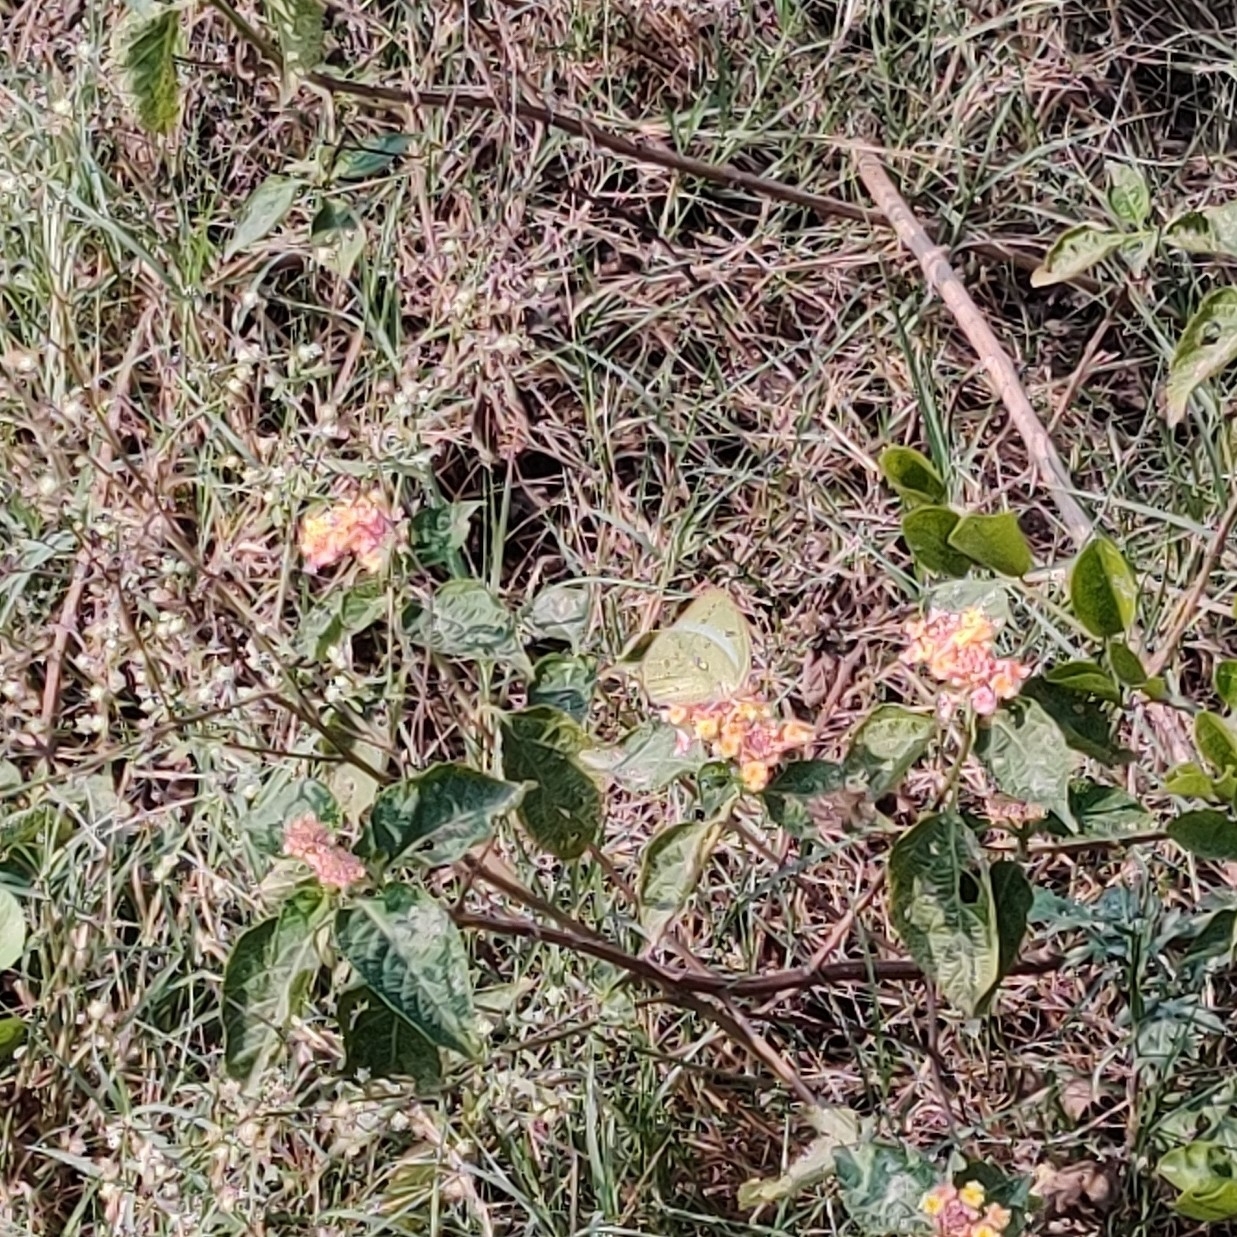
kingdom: Animalia
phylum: Arthropoda
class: Insecta
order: Lepidoptera
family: Pieridae
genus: Catopsilia
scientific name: Catopsilia pyranthe
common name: Mottled emigrant
